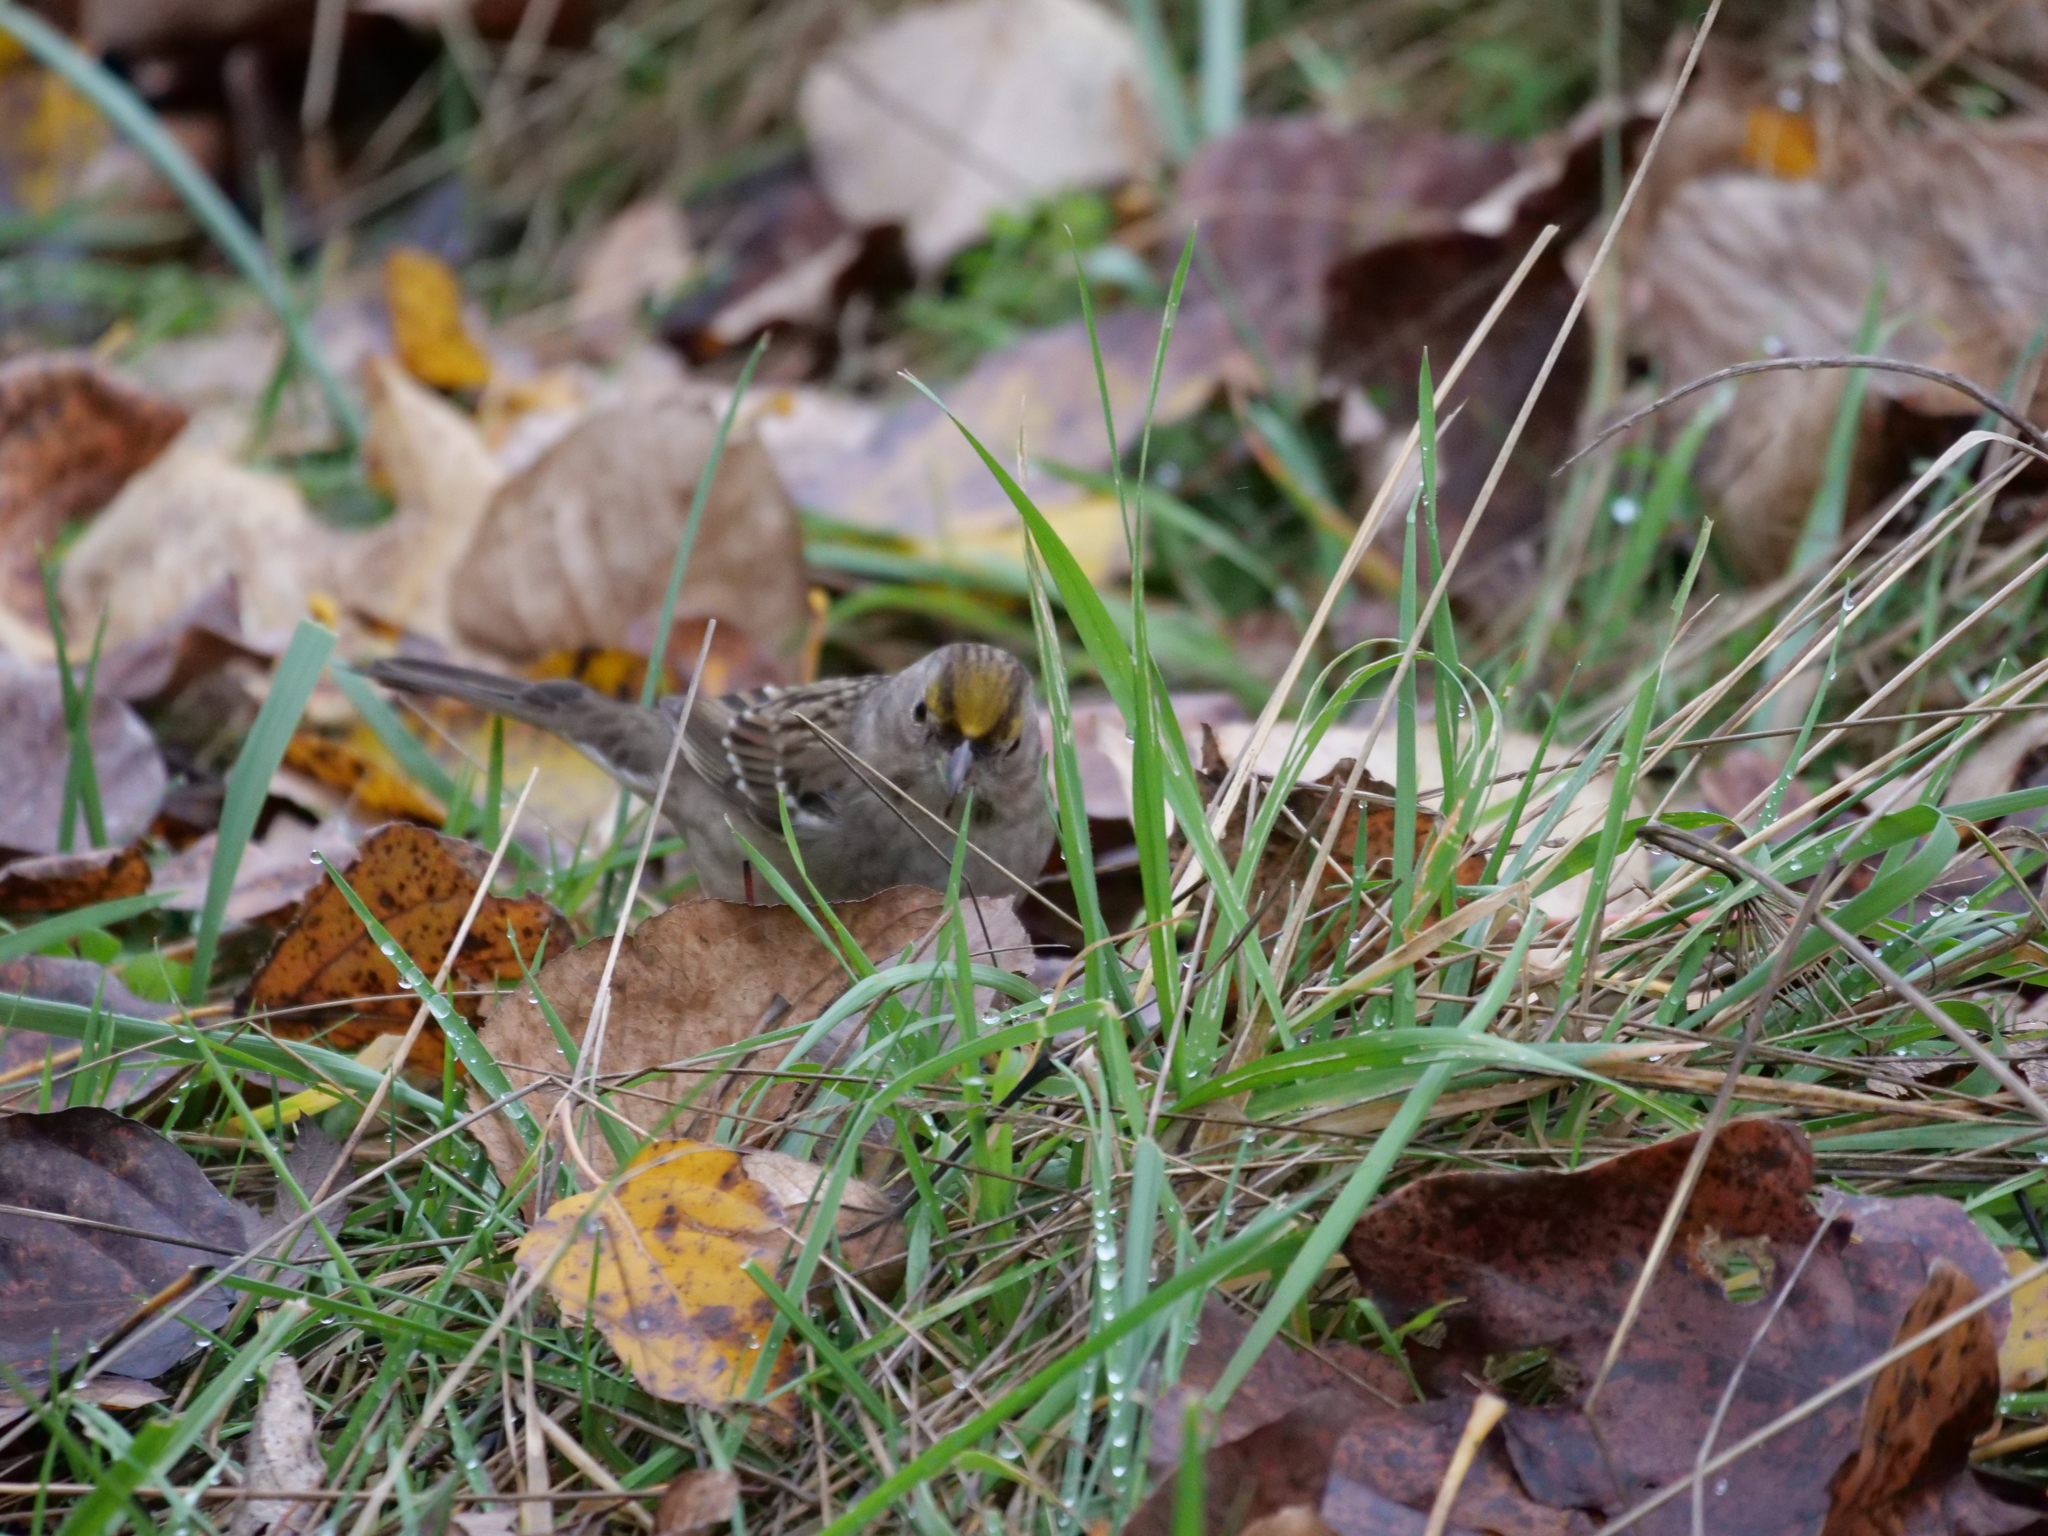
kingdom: Animalia
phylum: Chordata
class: Aves
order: Passeriformes
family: Passerellidae
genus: Zonotrichia
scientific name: Zonotrichia atricapilla
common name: Golden-crowned sparrow
